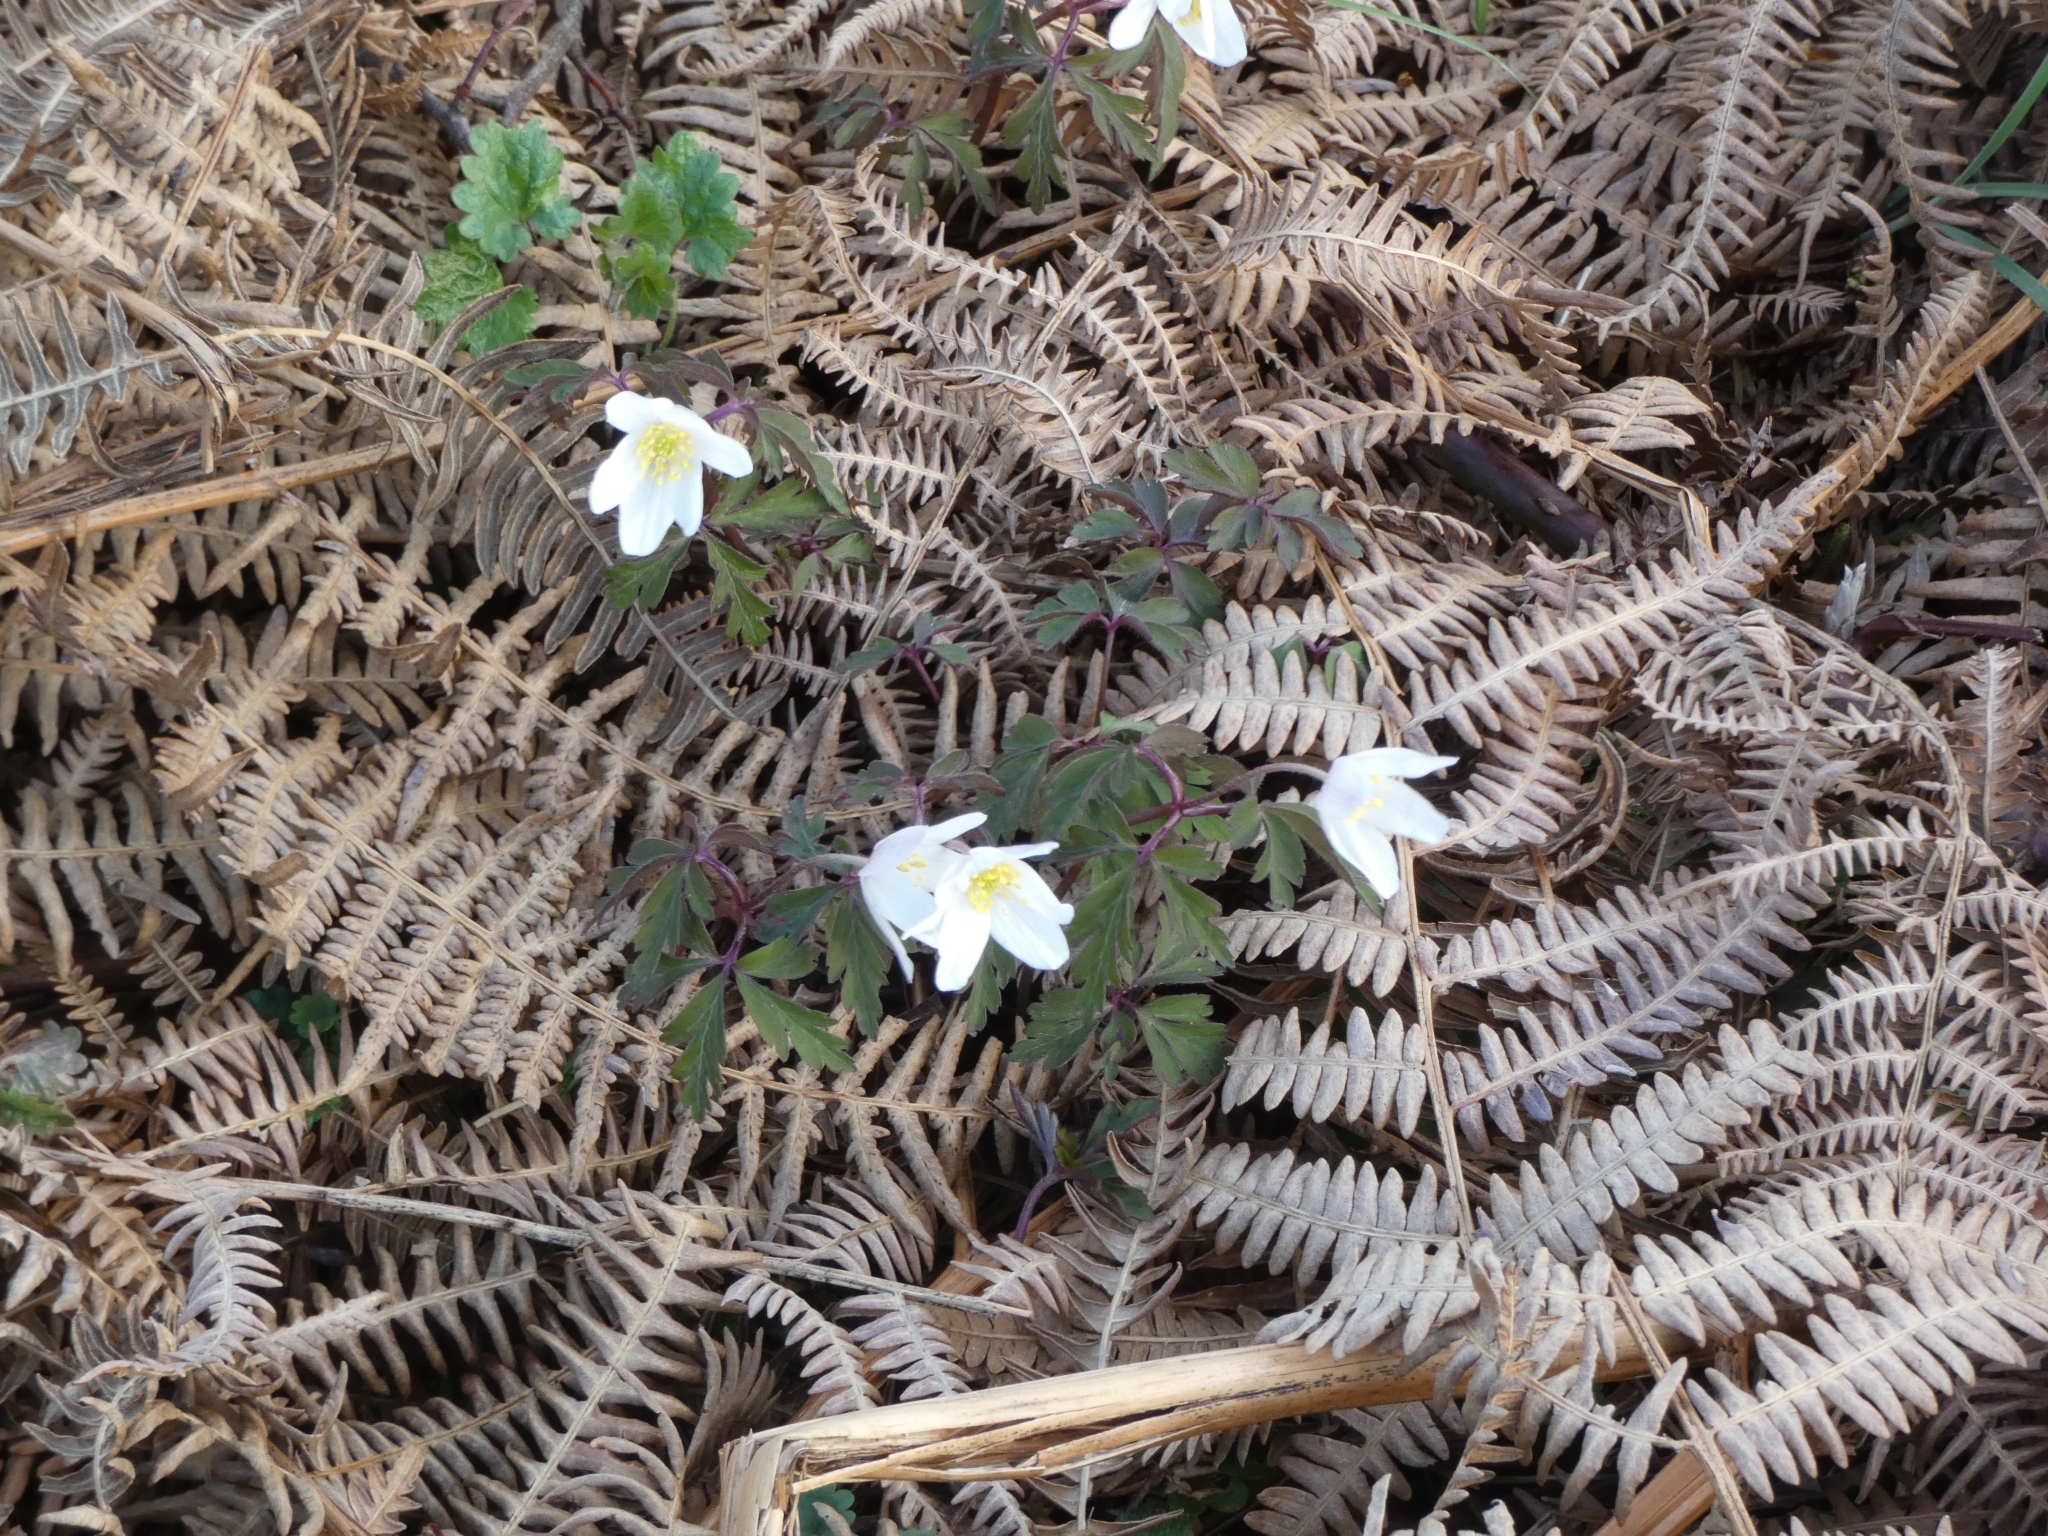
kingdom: Plantae
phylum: Tracheophyta
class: Magnoliopsida
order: Ranunculales
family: Ranunculaceae
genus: Anemone
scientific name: Anemone nemorosa
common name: Wood anemone
